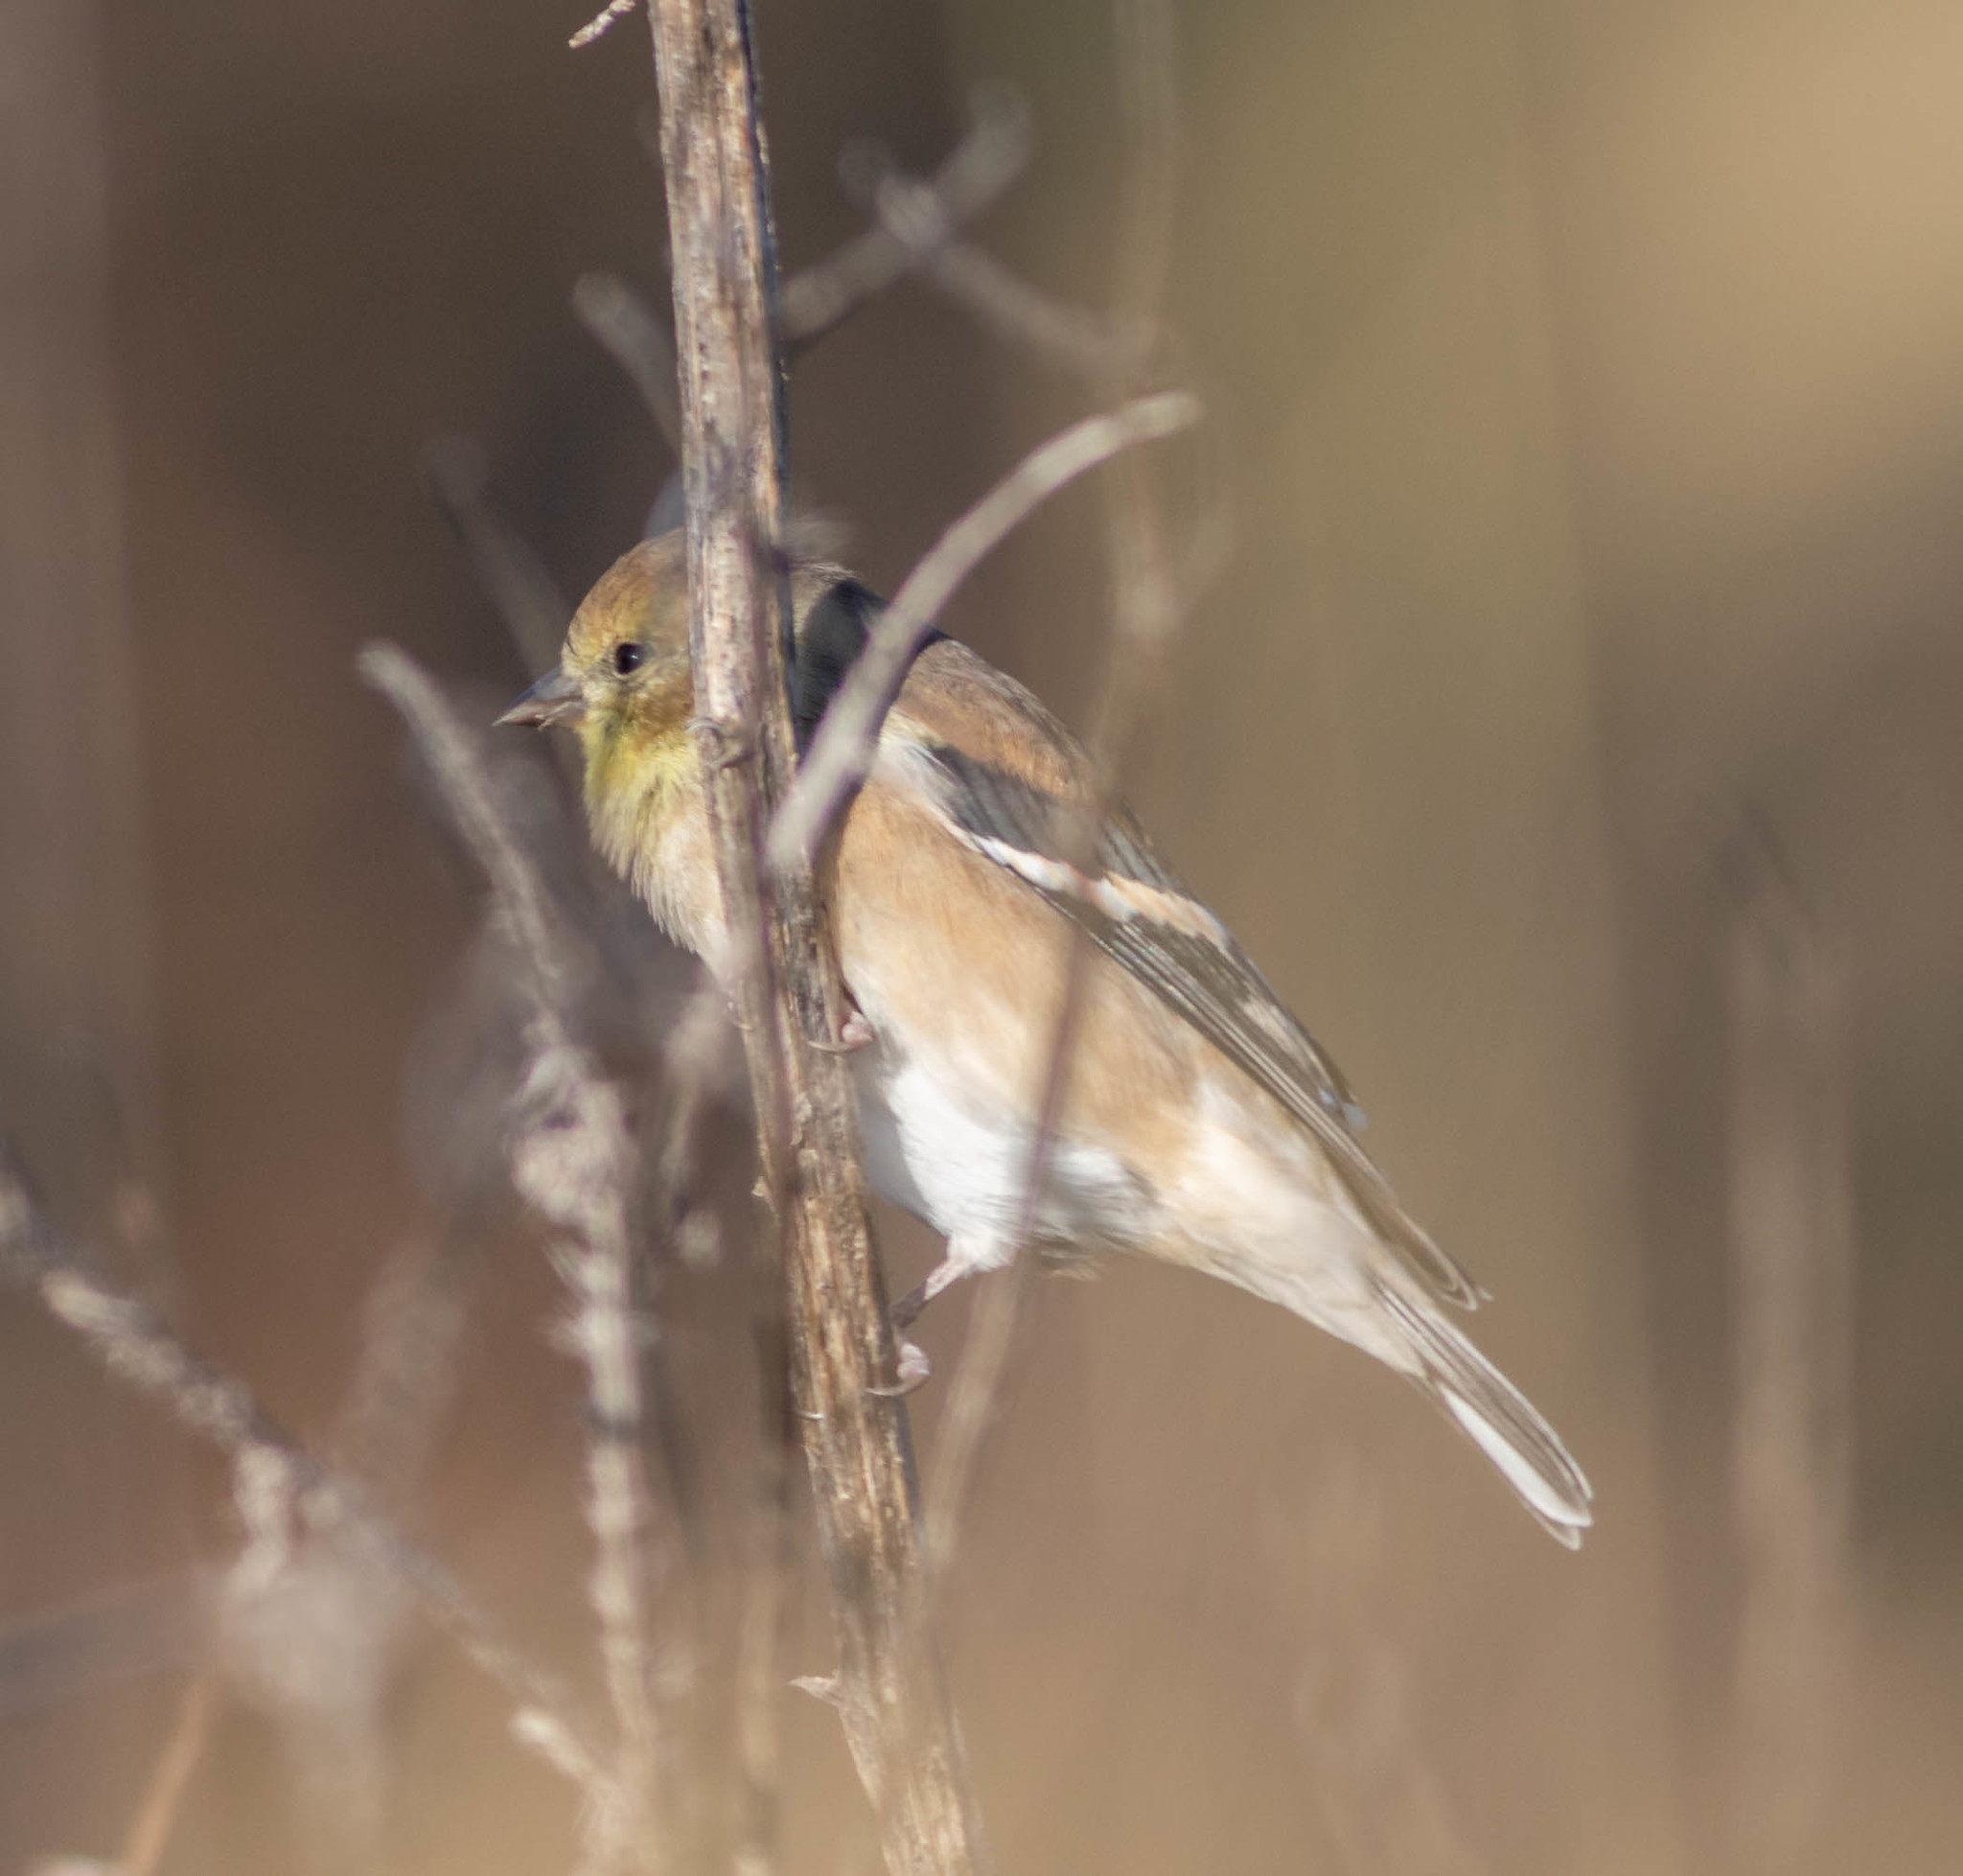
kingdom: Animalia
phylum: Chordata
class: Aves
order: Passeriformes
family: Fringillidae
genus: Spinus
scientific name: Spinus tristis
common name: American goldfinch
